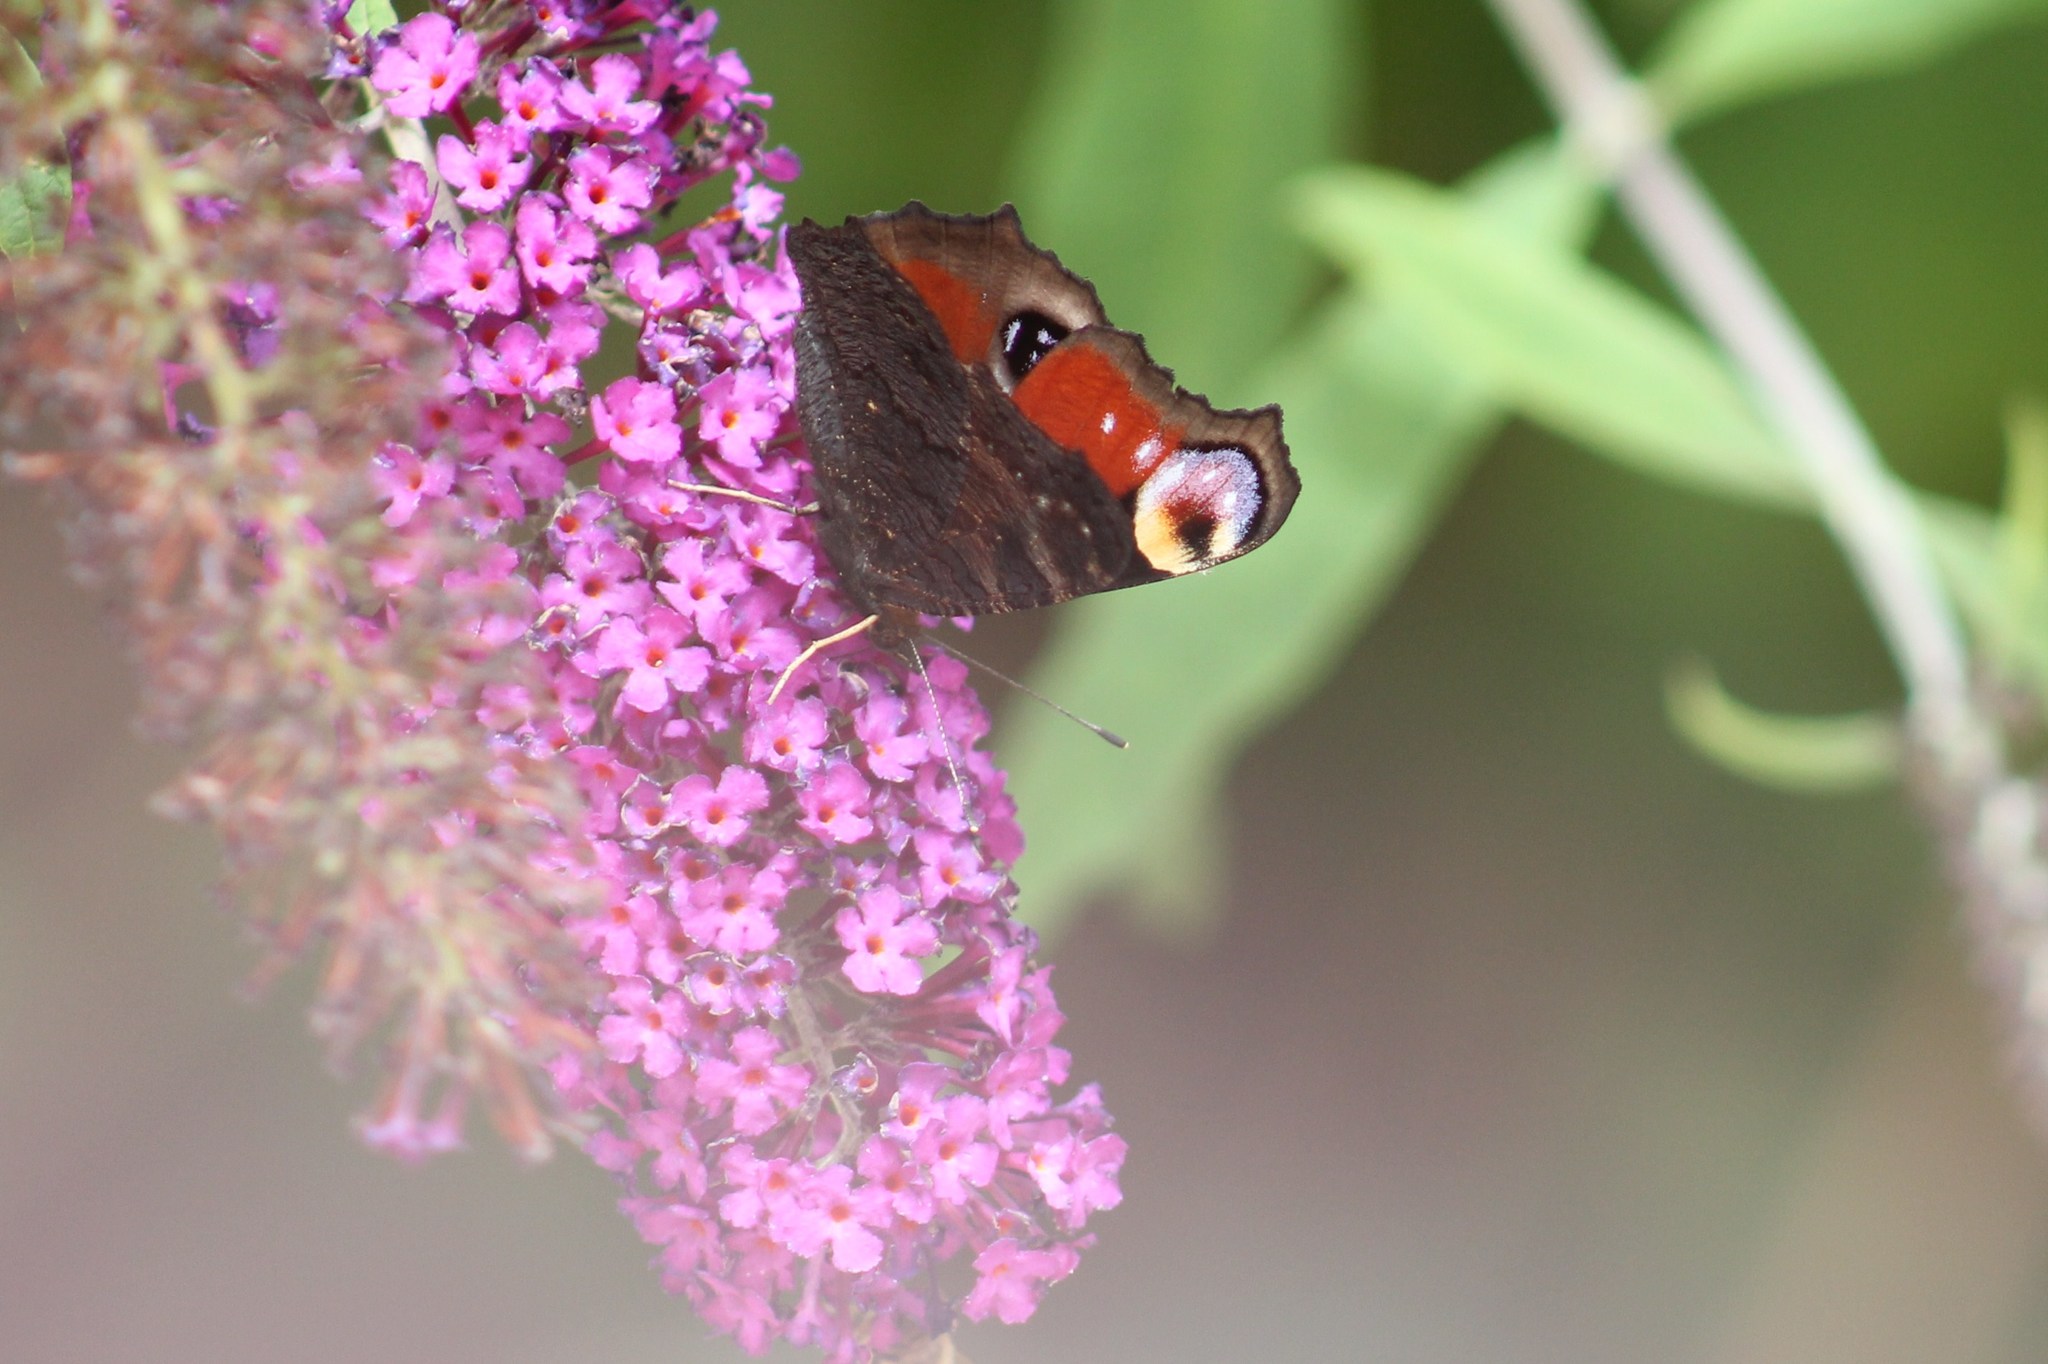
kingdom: Animalia
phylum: Arthropoda
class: Insecta
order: Lepidoptera
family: Nymphalidae
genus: Aglais
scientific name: Aglais io
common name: Peacock
